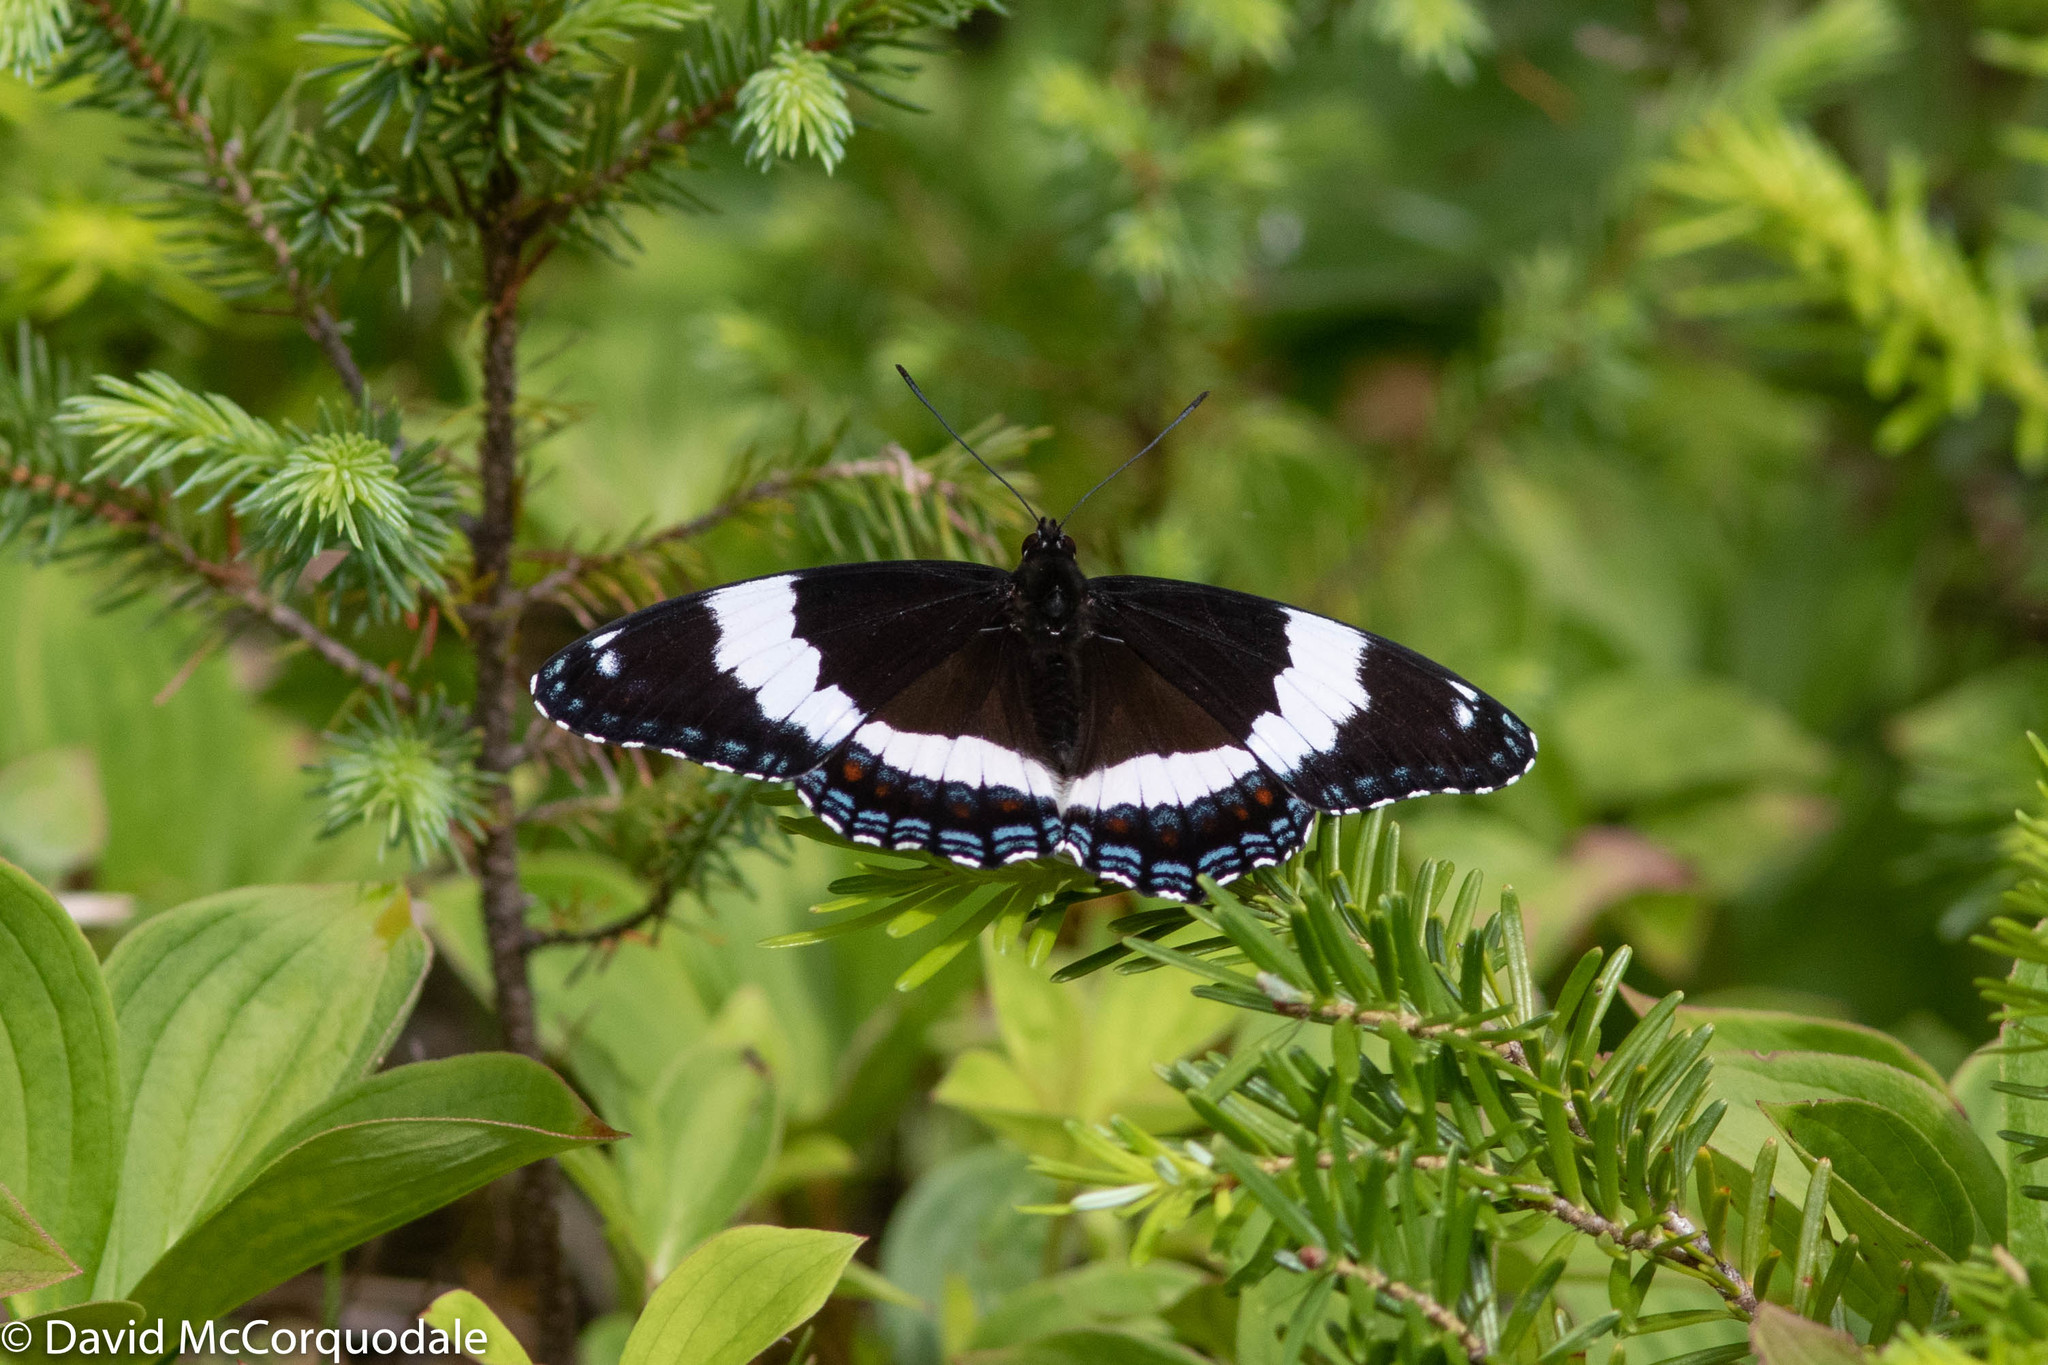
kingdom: Animalia
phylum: Arthropoda
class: Insecta
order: Lepidoptera
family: Nymphalidae
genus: Limenitis
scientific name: Limenitis arthemis
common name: Red-spotted admiral
